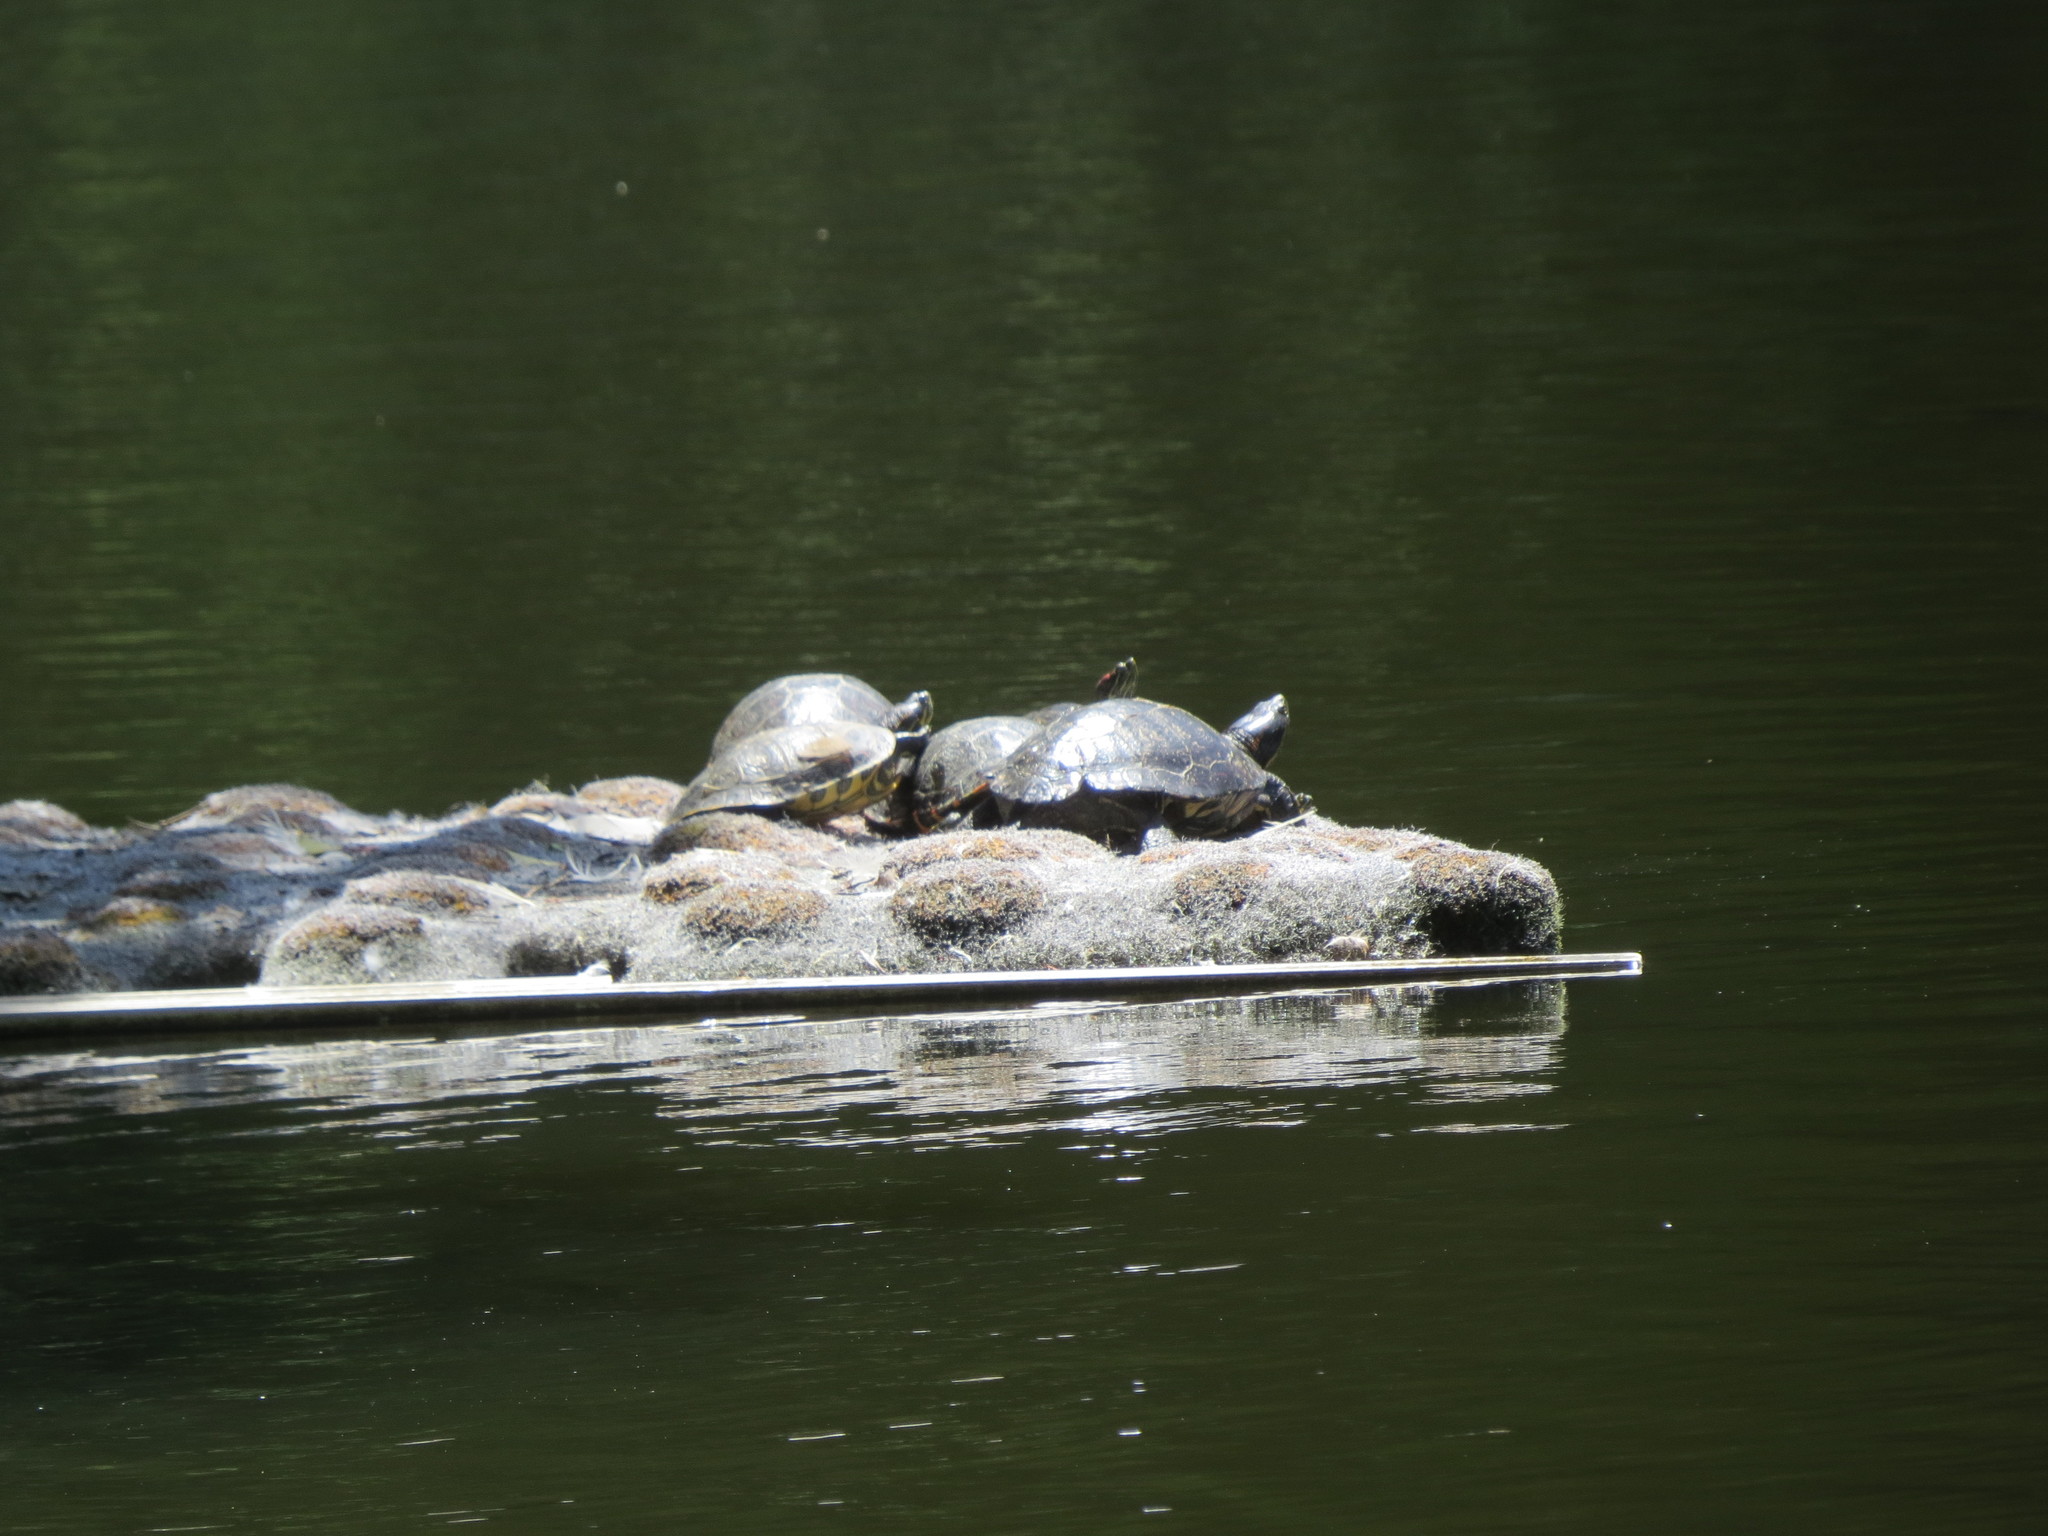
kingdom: Animalia
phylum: Chordata
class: Testudines
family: Emydidae
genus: Trachemys
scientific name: Trachemys scripta
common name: Slider
